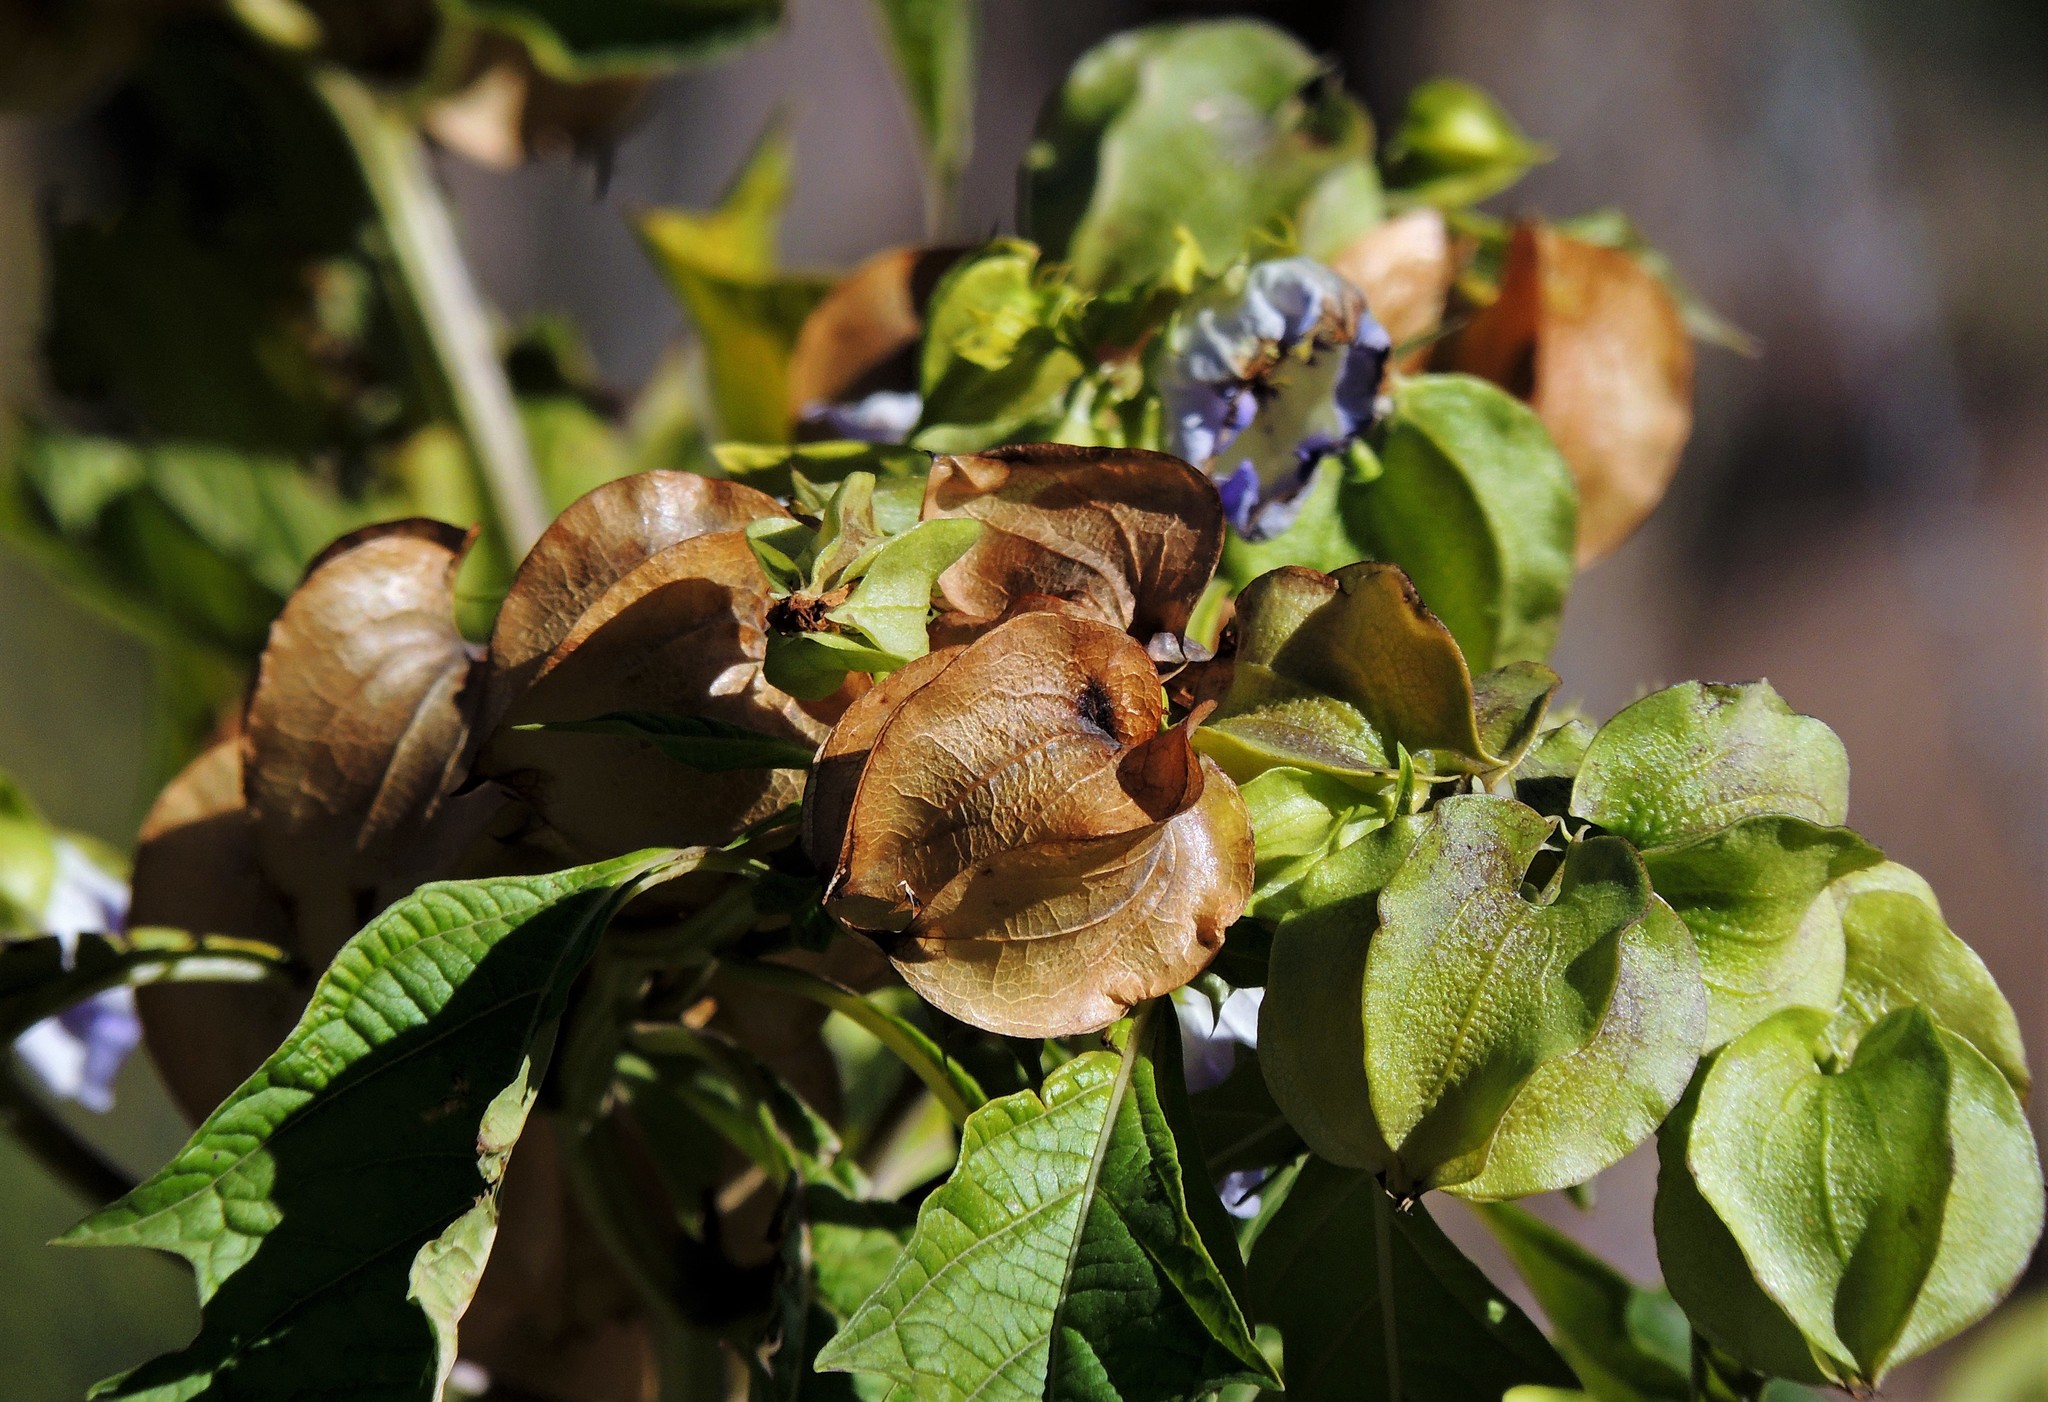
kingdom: Plantae
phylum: Tracheophyta
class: Magnoliopsida
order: Solanales
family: Solanaceae
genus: Nicandra
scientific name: Nicandra physalodes
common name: Apple-of-peru
